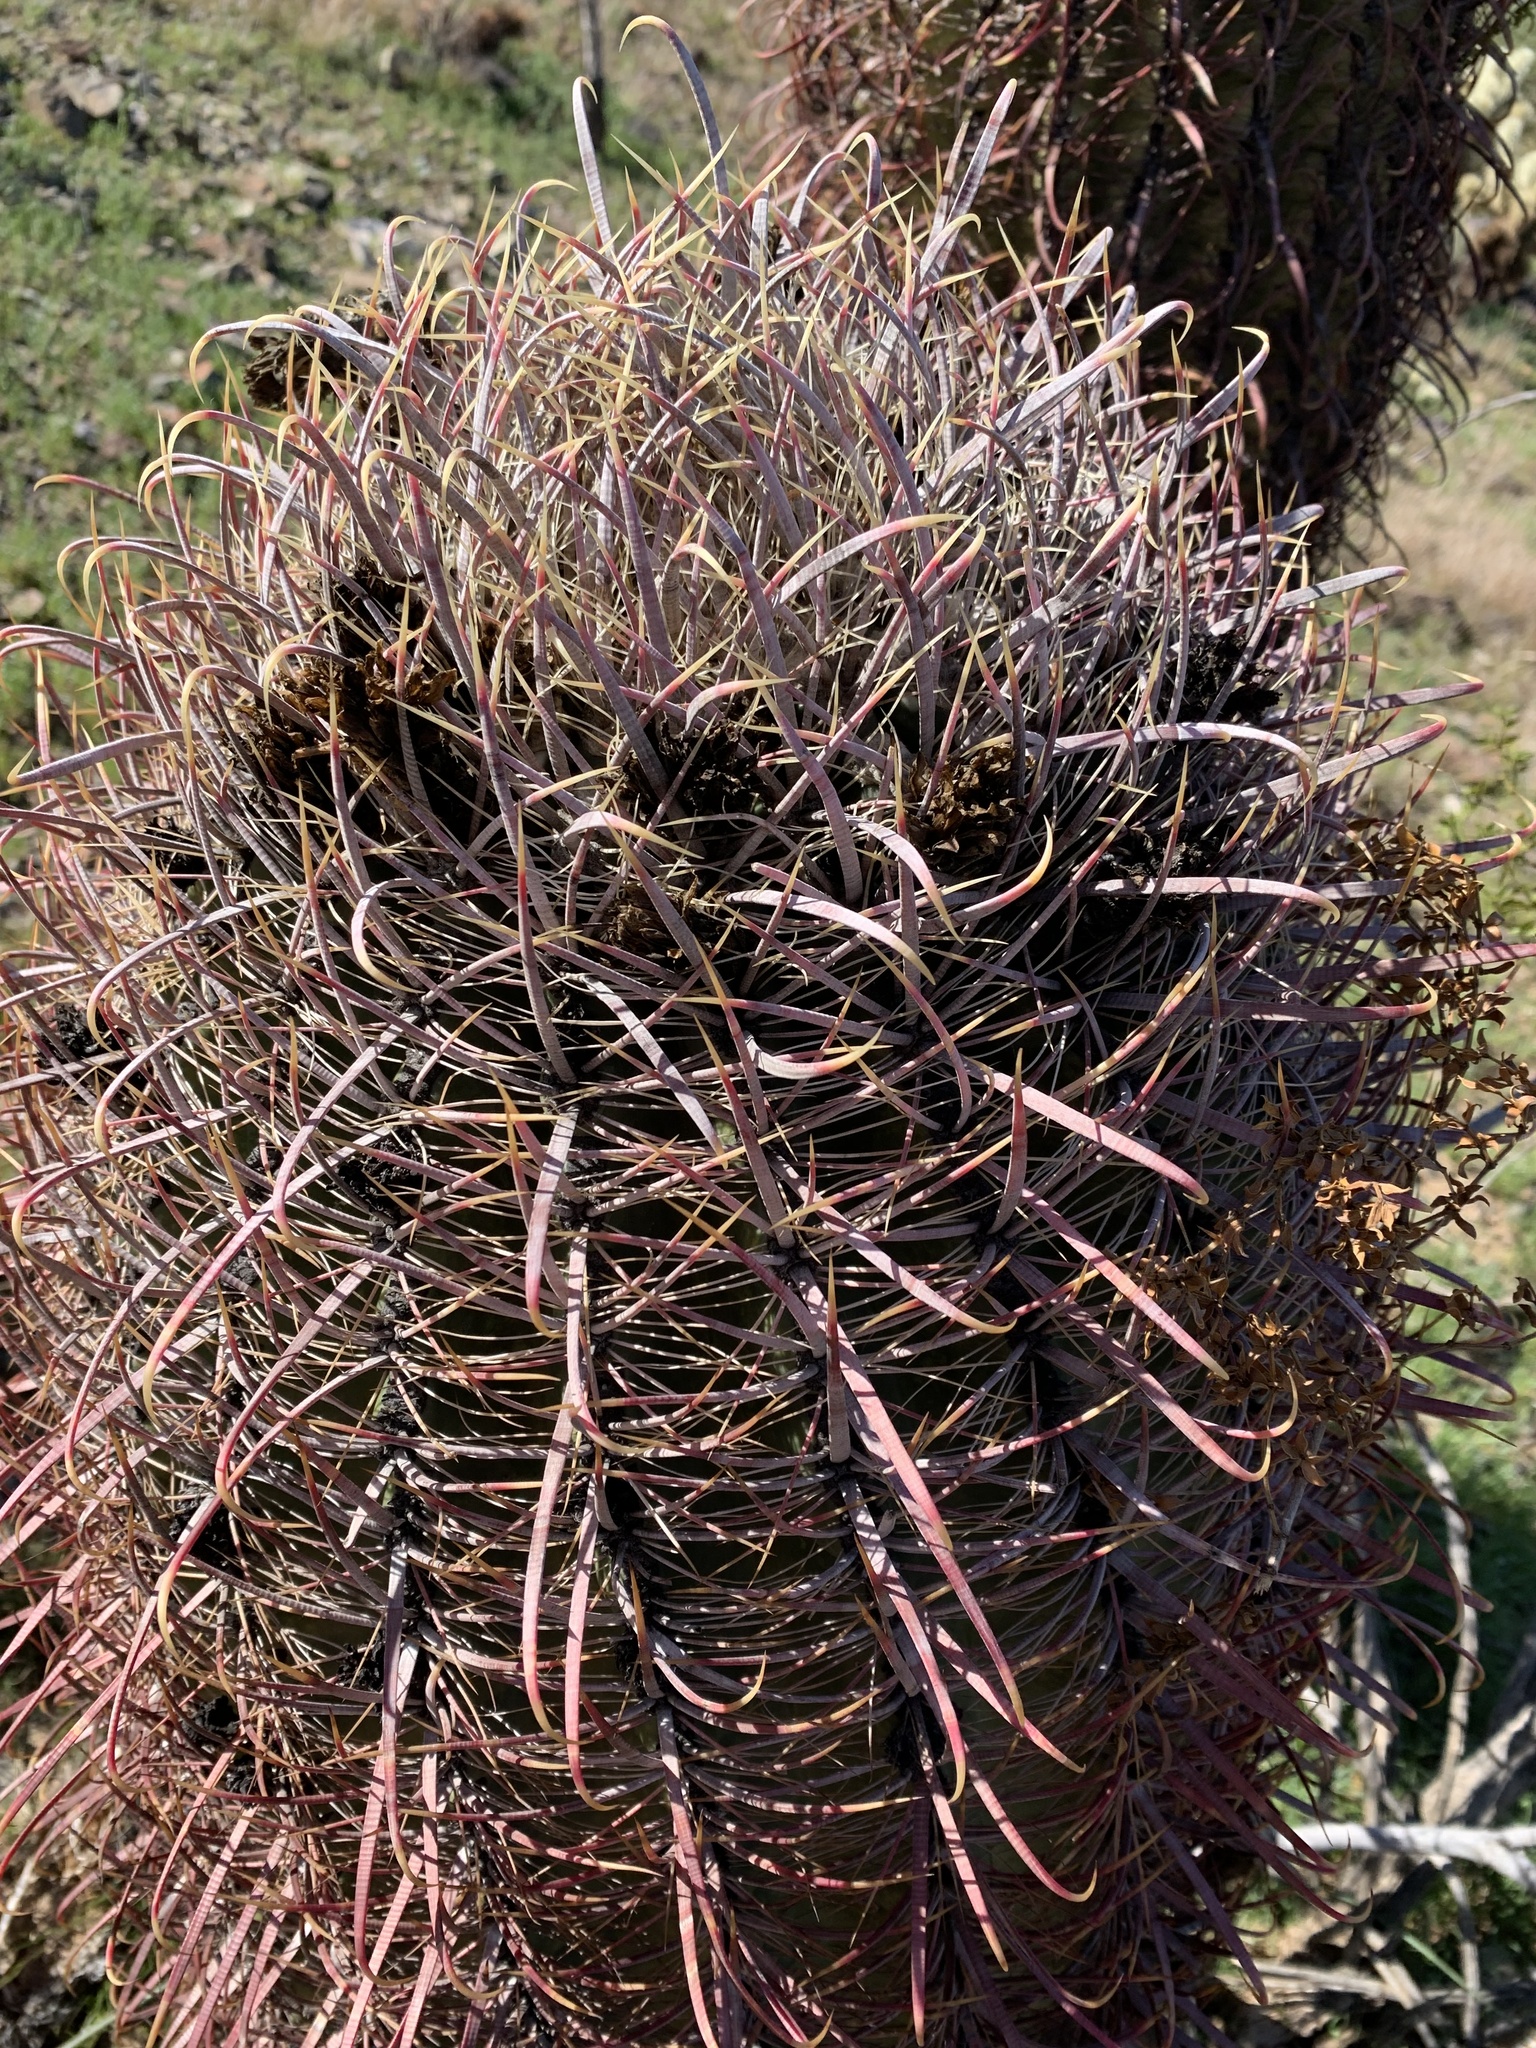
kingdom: Plantae
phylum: Tracheophyta
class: Magnoliopsida
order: Caryophyllales
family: Cactaceae
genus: Ferocactus
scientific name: Ferocactus cylindraceus
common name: California barrel cactus
